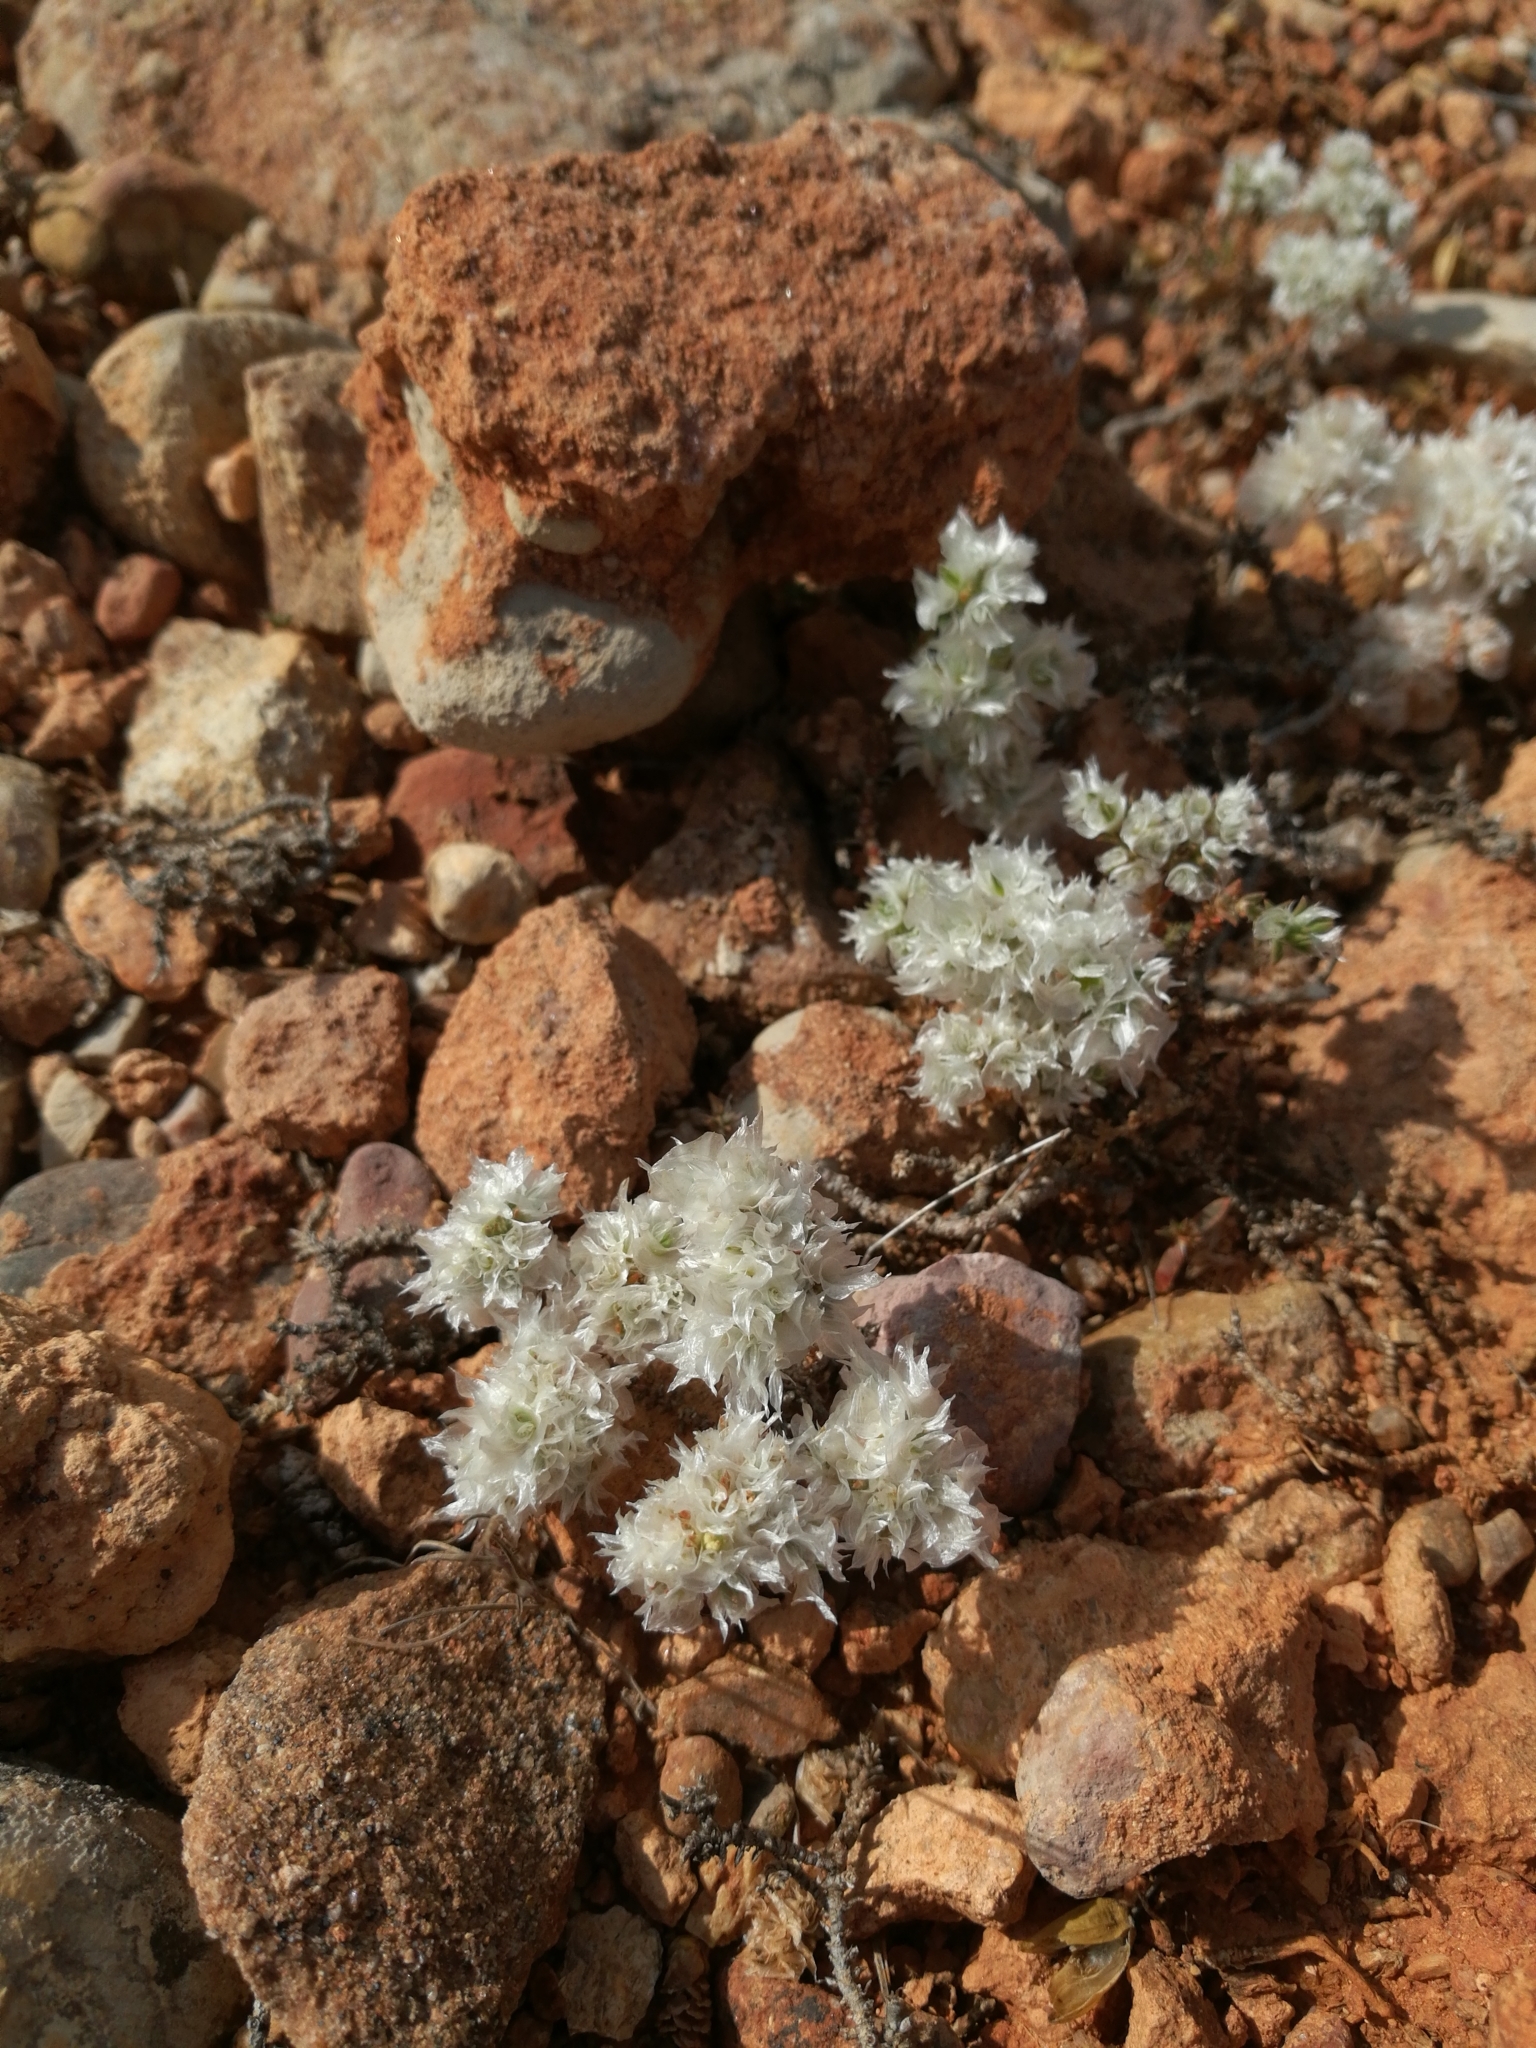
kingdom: Plantae
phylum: Tracheophyta
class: Magnoliopsida
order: Caryophyllales
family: Caryophyllaceae
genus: Paronychia
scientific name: Paronychia argentea
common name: Silver nailroot
